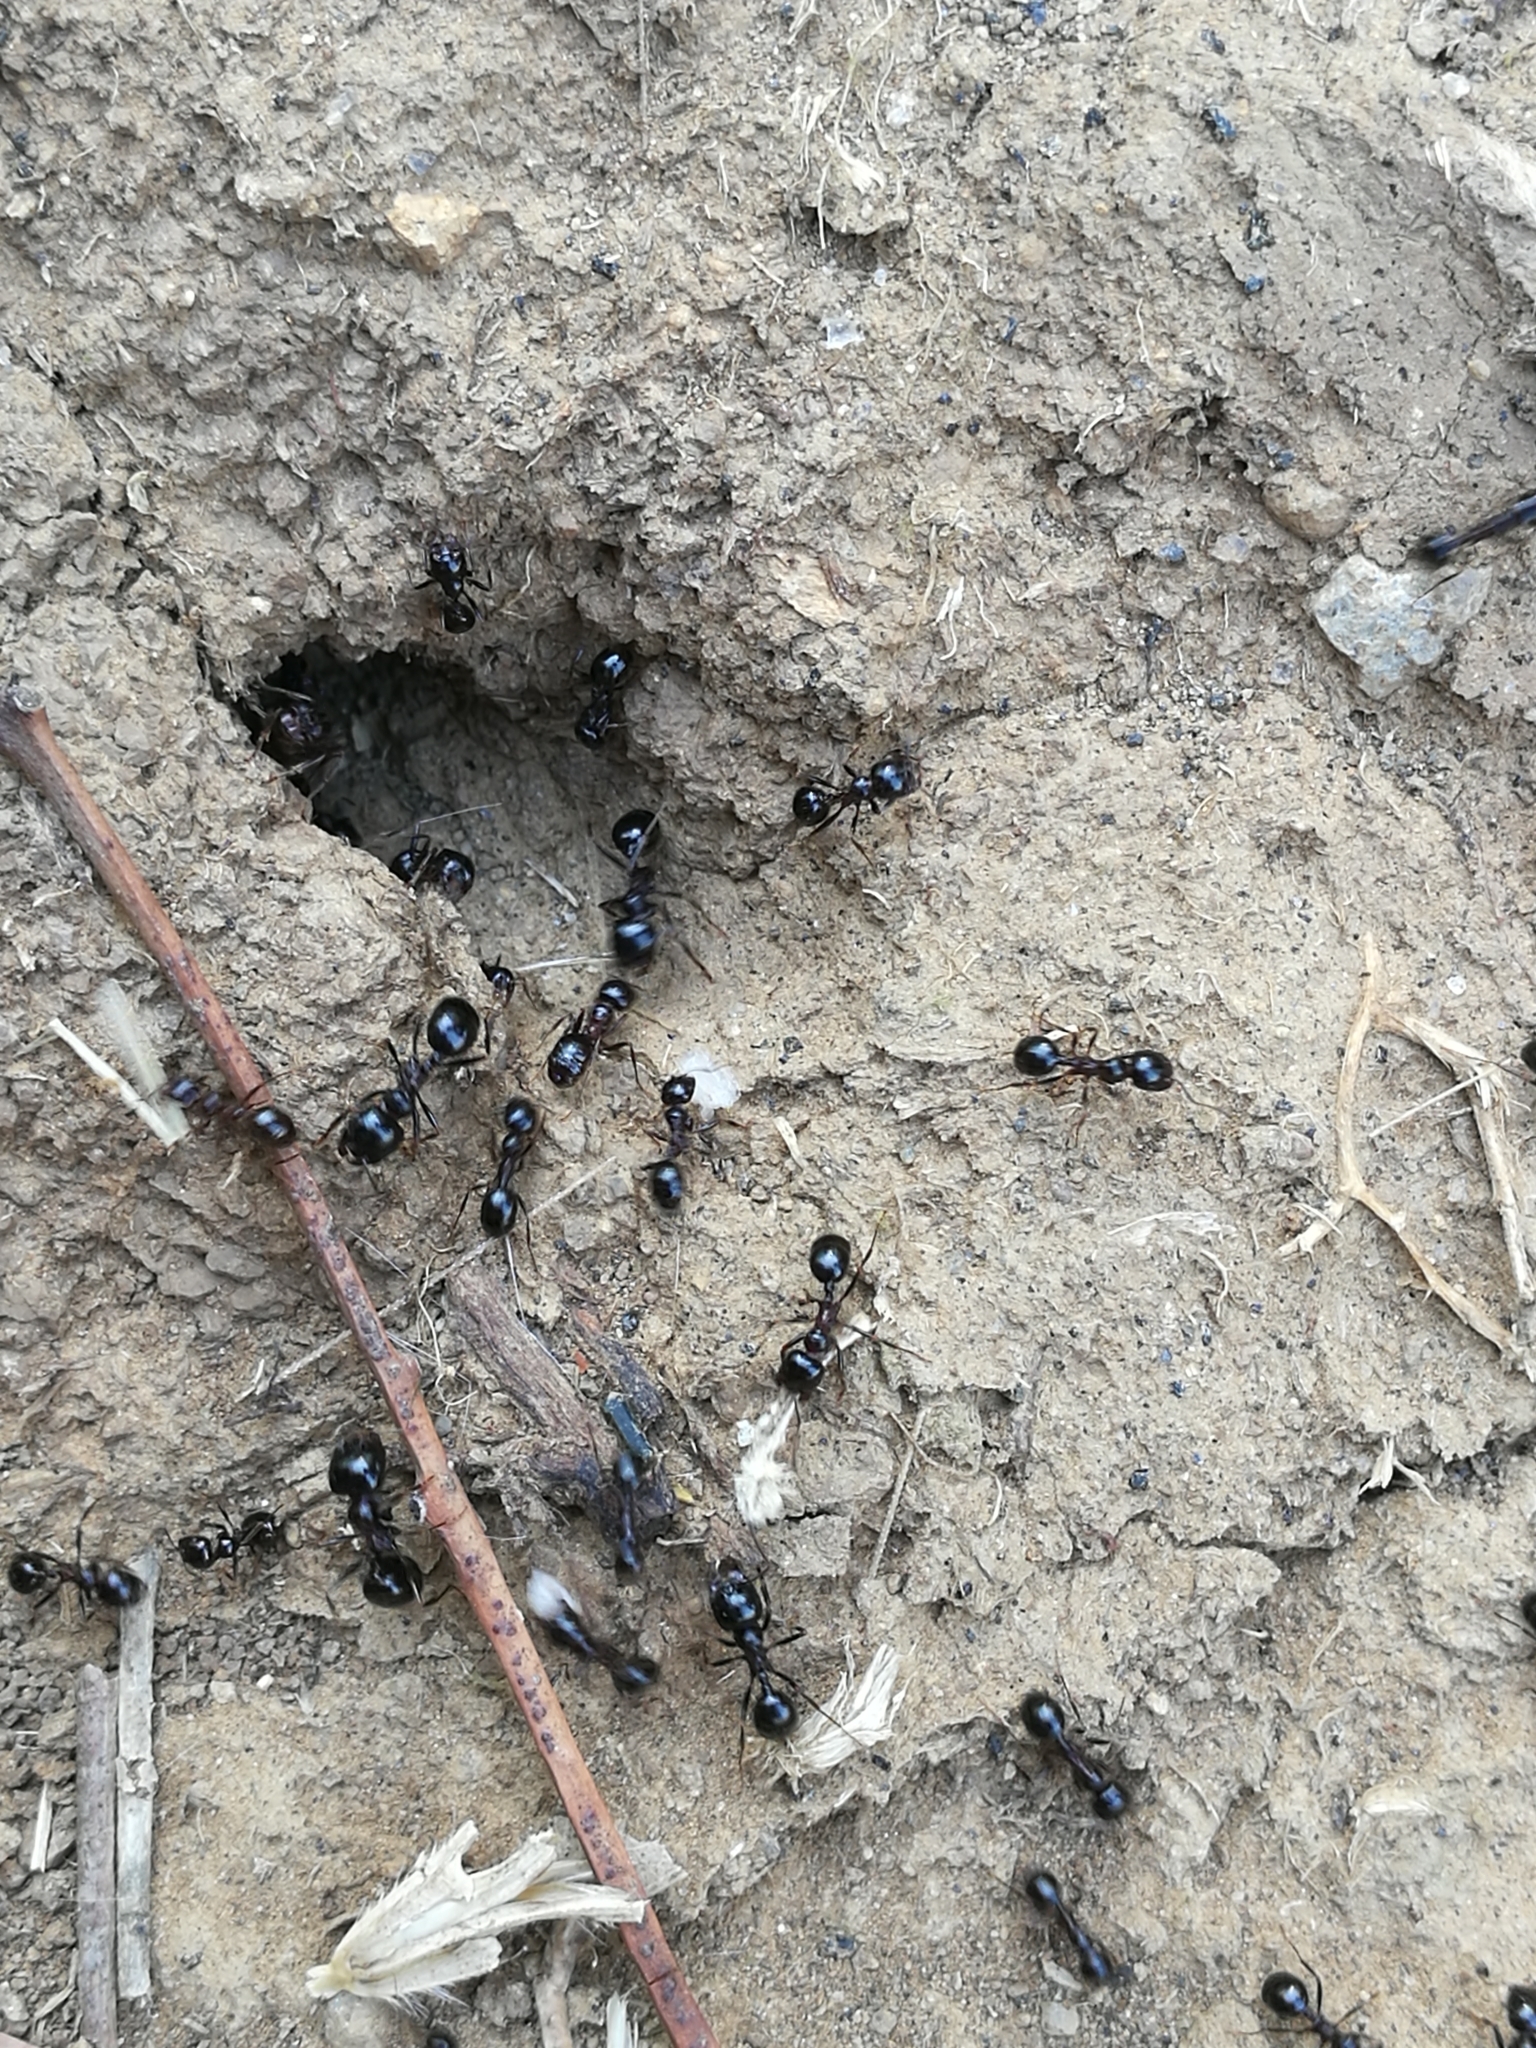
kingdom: Animalia
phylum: Arthropoda
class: Insecta
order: Hymenoptera
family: Formicidae
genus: Messor
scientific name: Messor wasmanni
